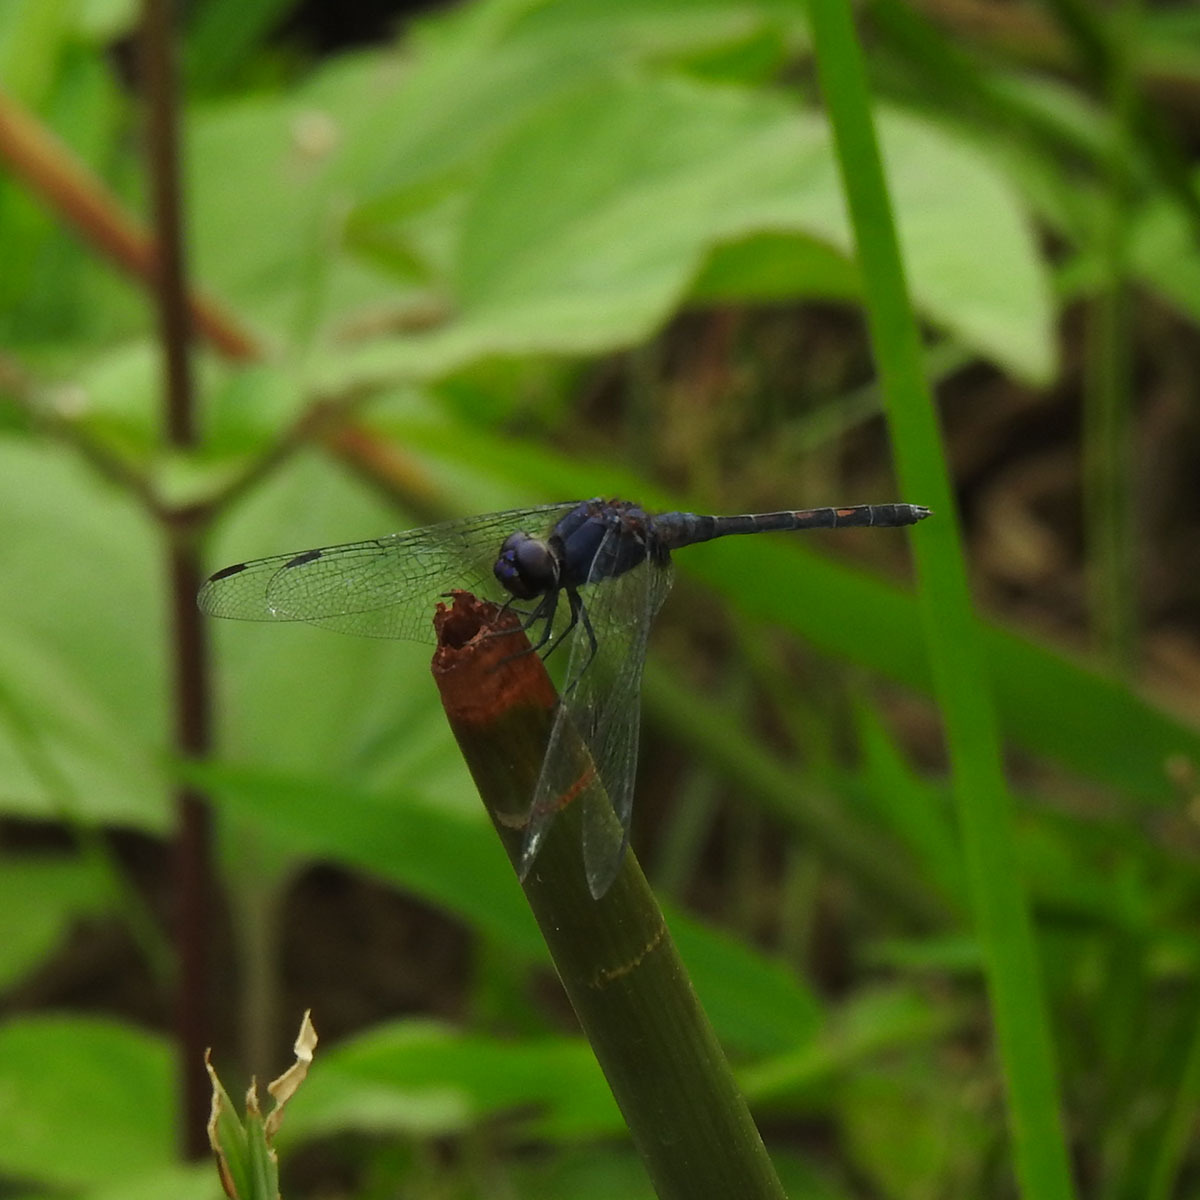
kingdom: Animalia
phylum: Arthropoda
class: Insecta
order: Odonata
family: Libellulidae
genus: Trithemis
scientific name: Trithemis festiva
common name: Indigo dropwing
